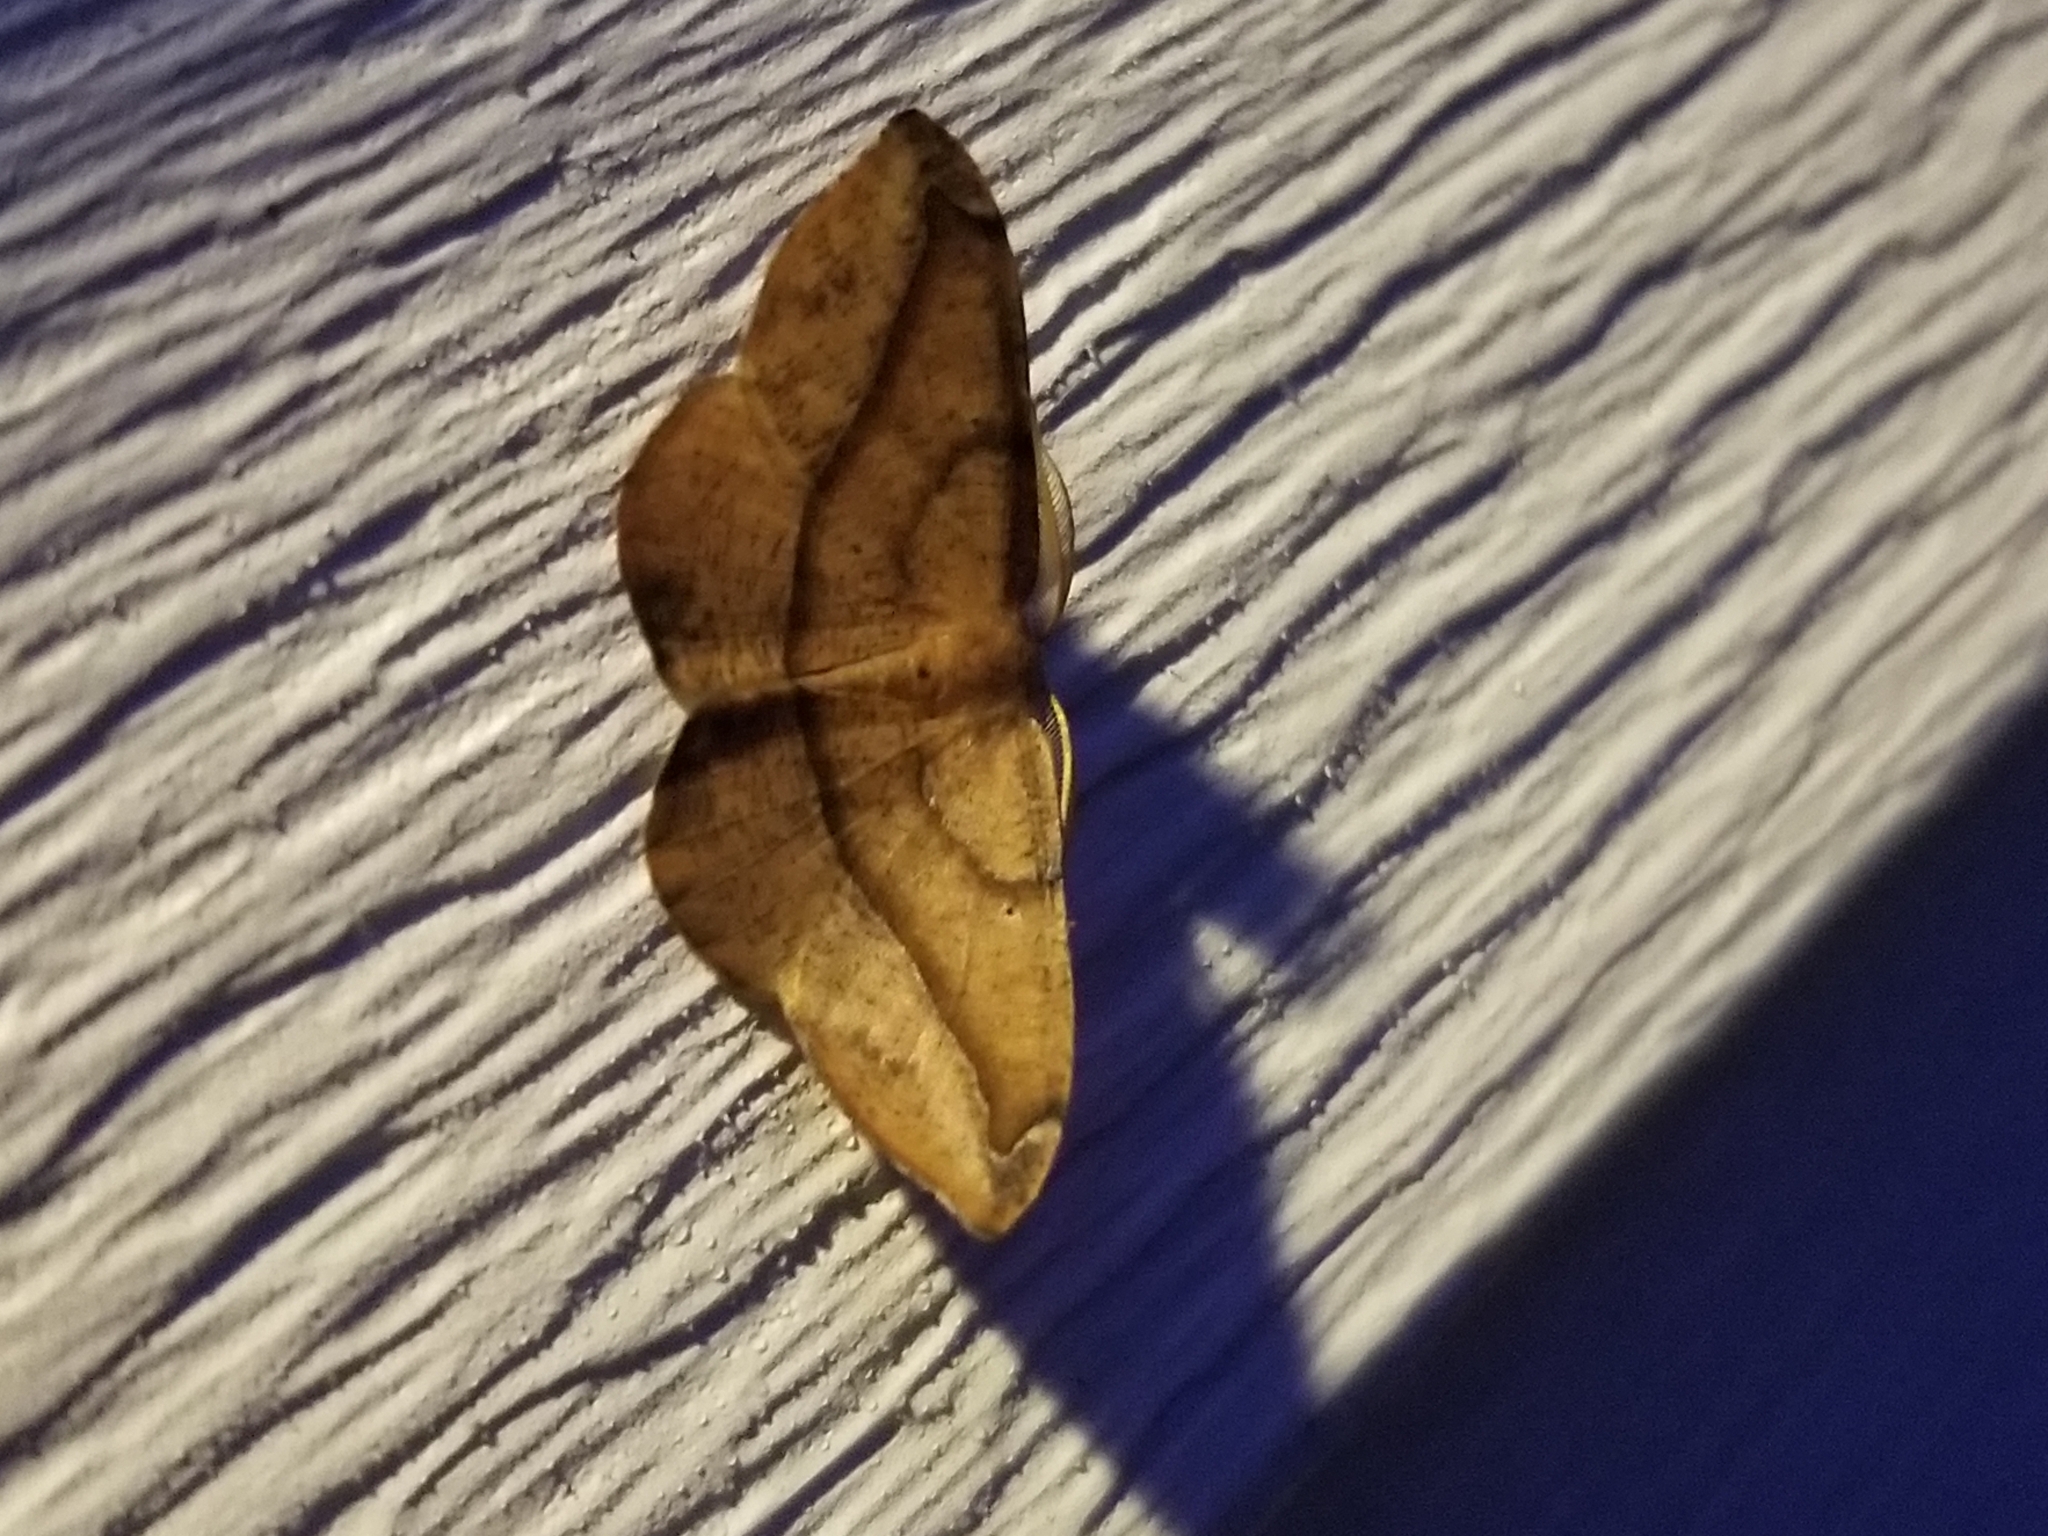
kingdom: Animalia
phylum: Arthropoda
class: Insecta
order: Lepidoptera
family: Geometridae
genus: Patalene
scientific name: Patalene olyzonaria
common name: Juniper geometer moth
